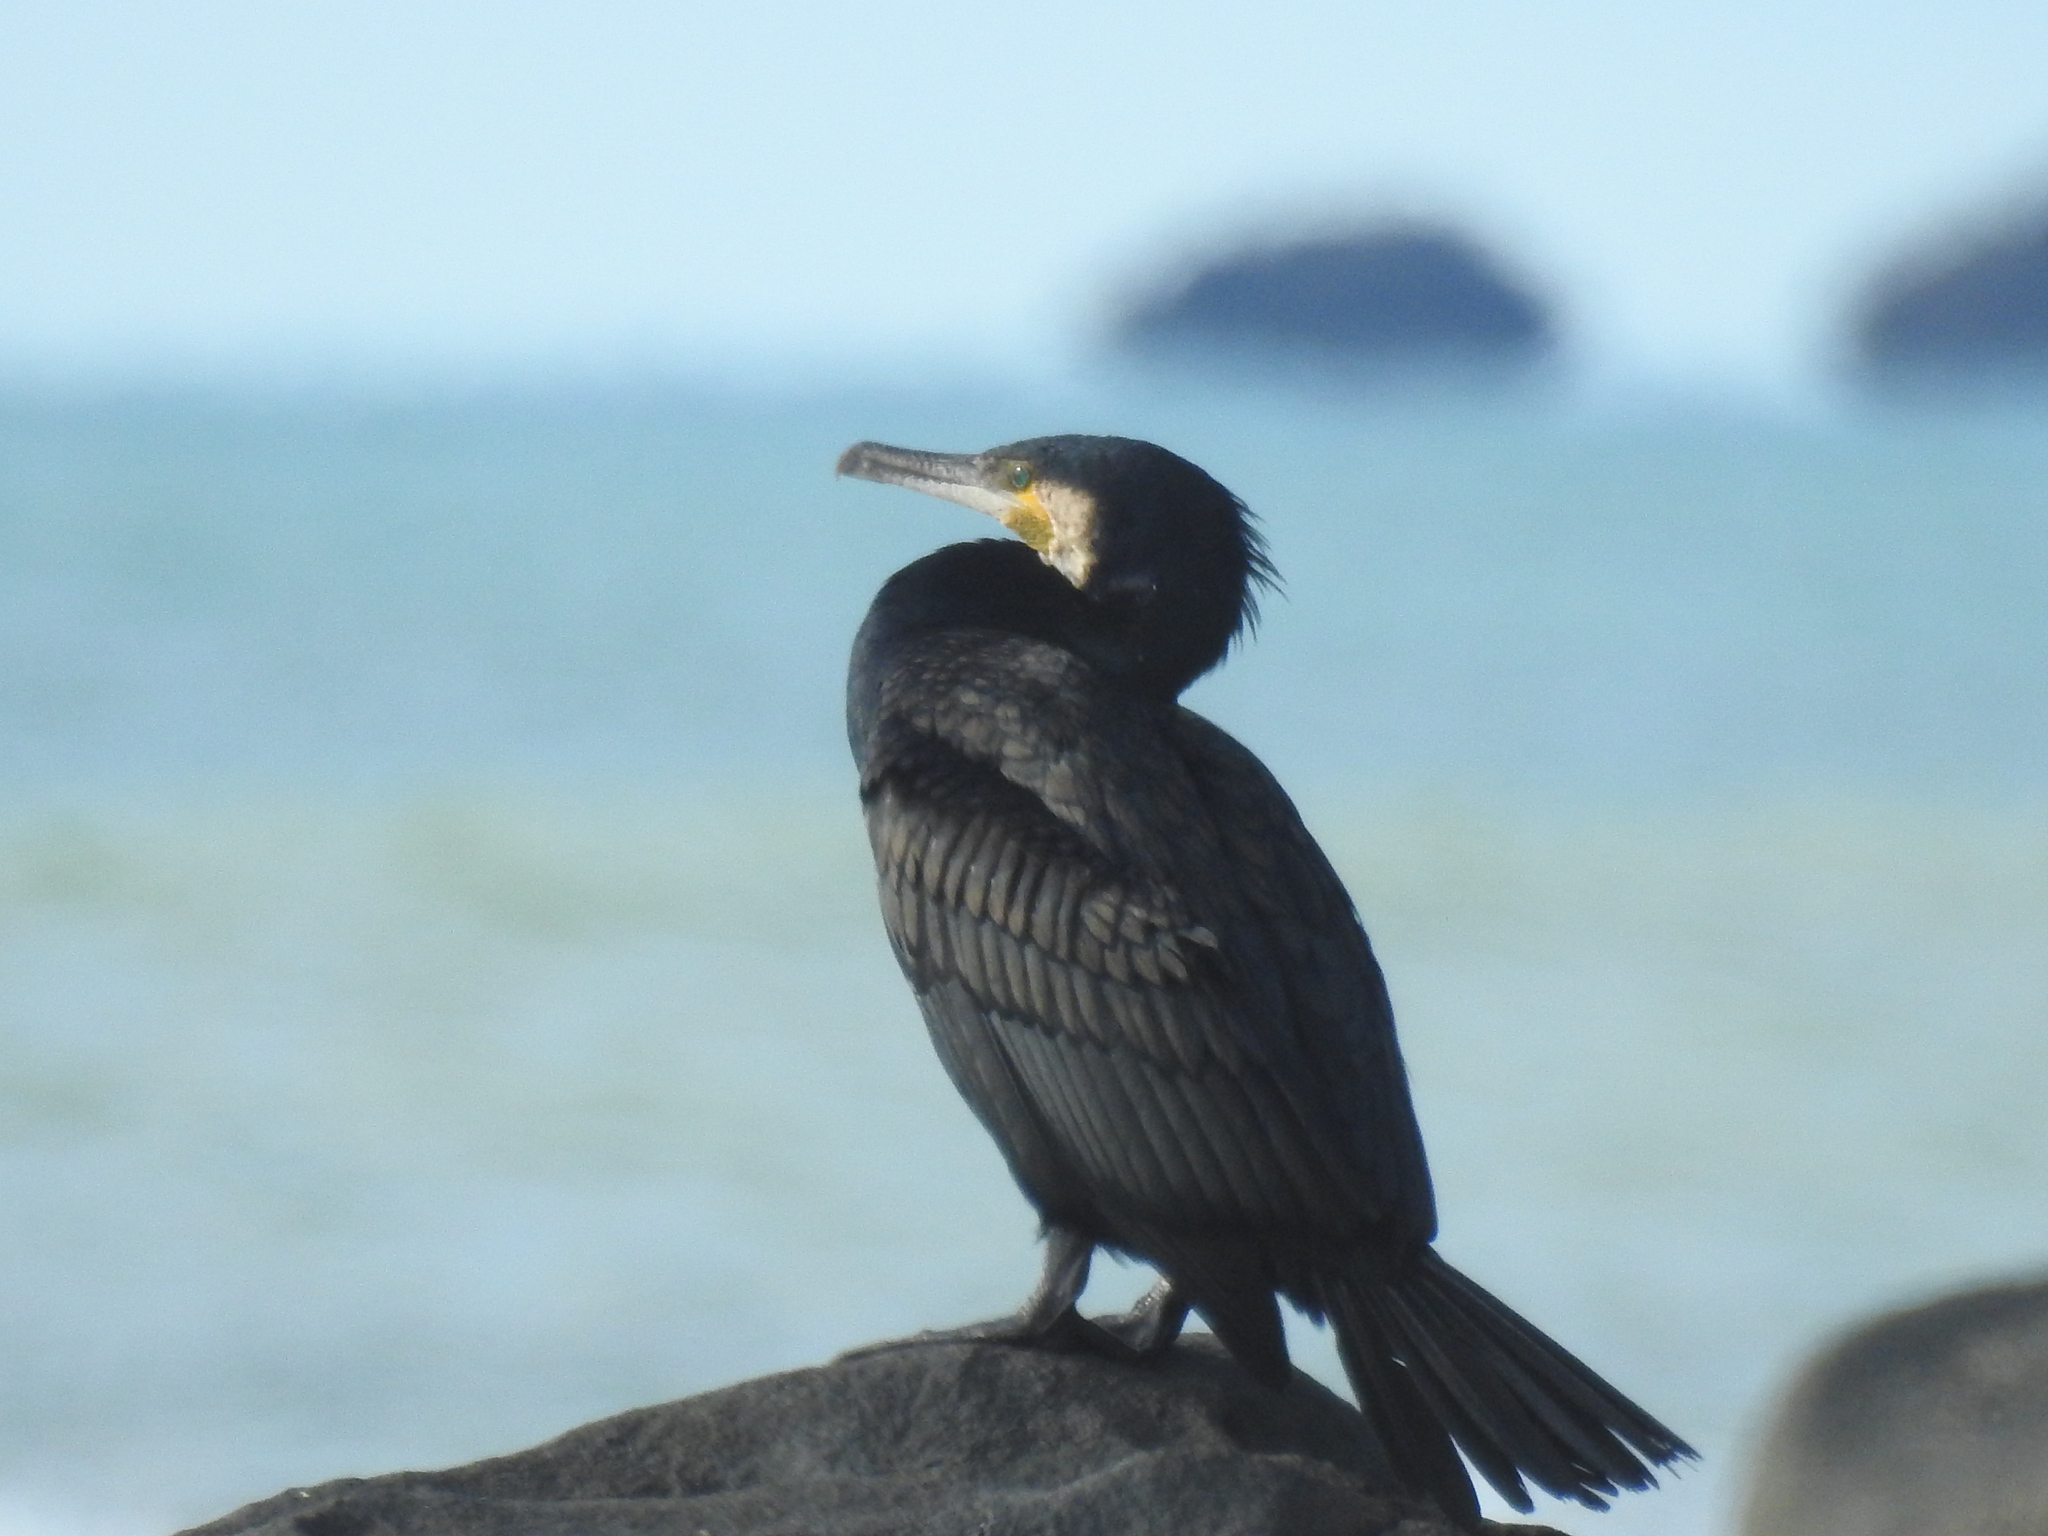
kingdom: Animalia
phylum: Chordata
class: Aves
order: Suliformes
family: Phalacrocoracidae
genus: Phalacrocorax
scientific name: Phalacrocorax carbo
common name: Great cormorant
